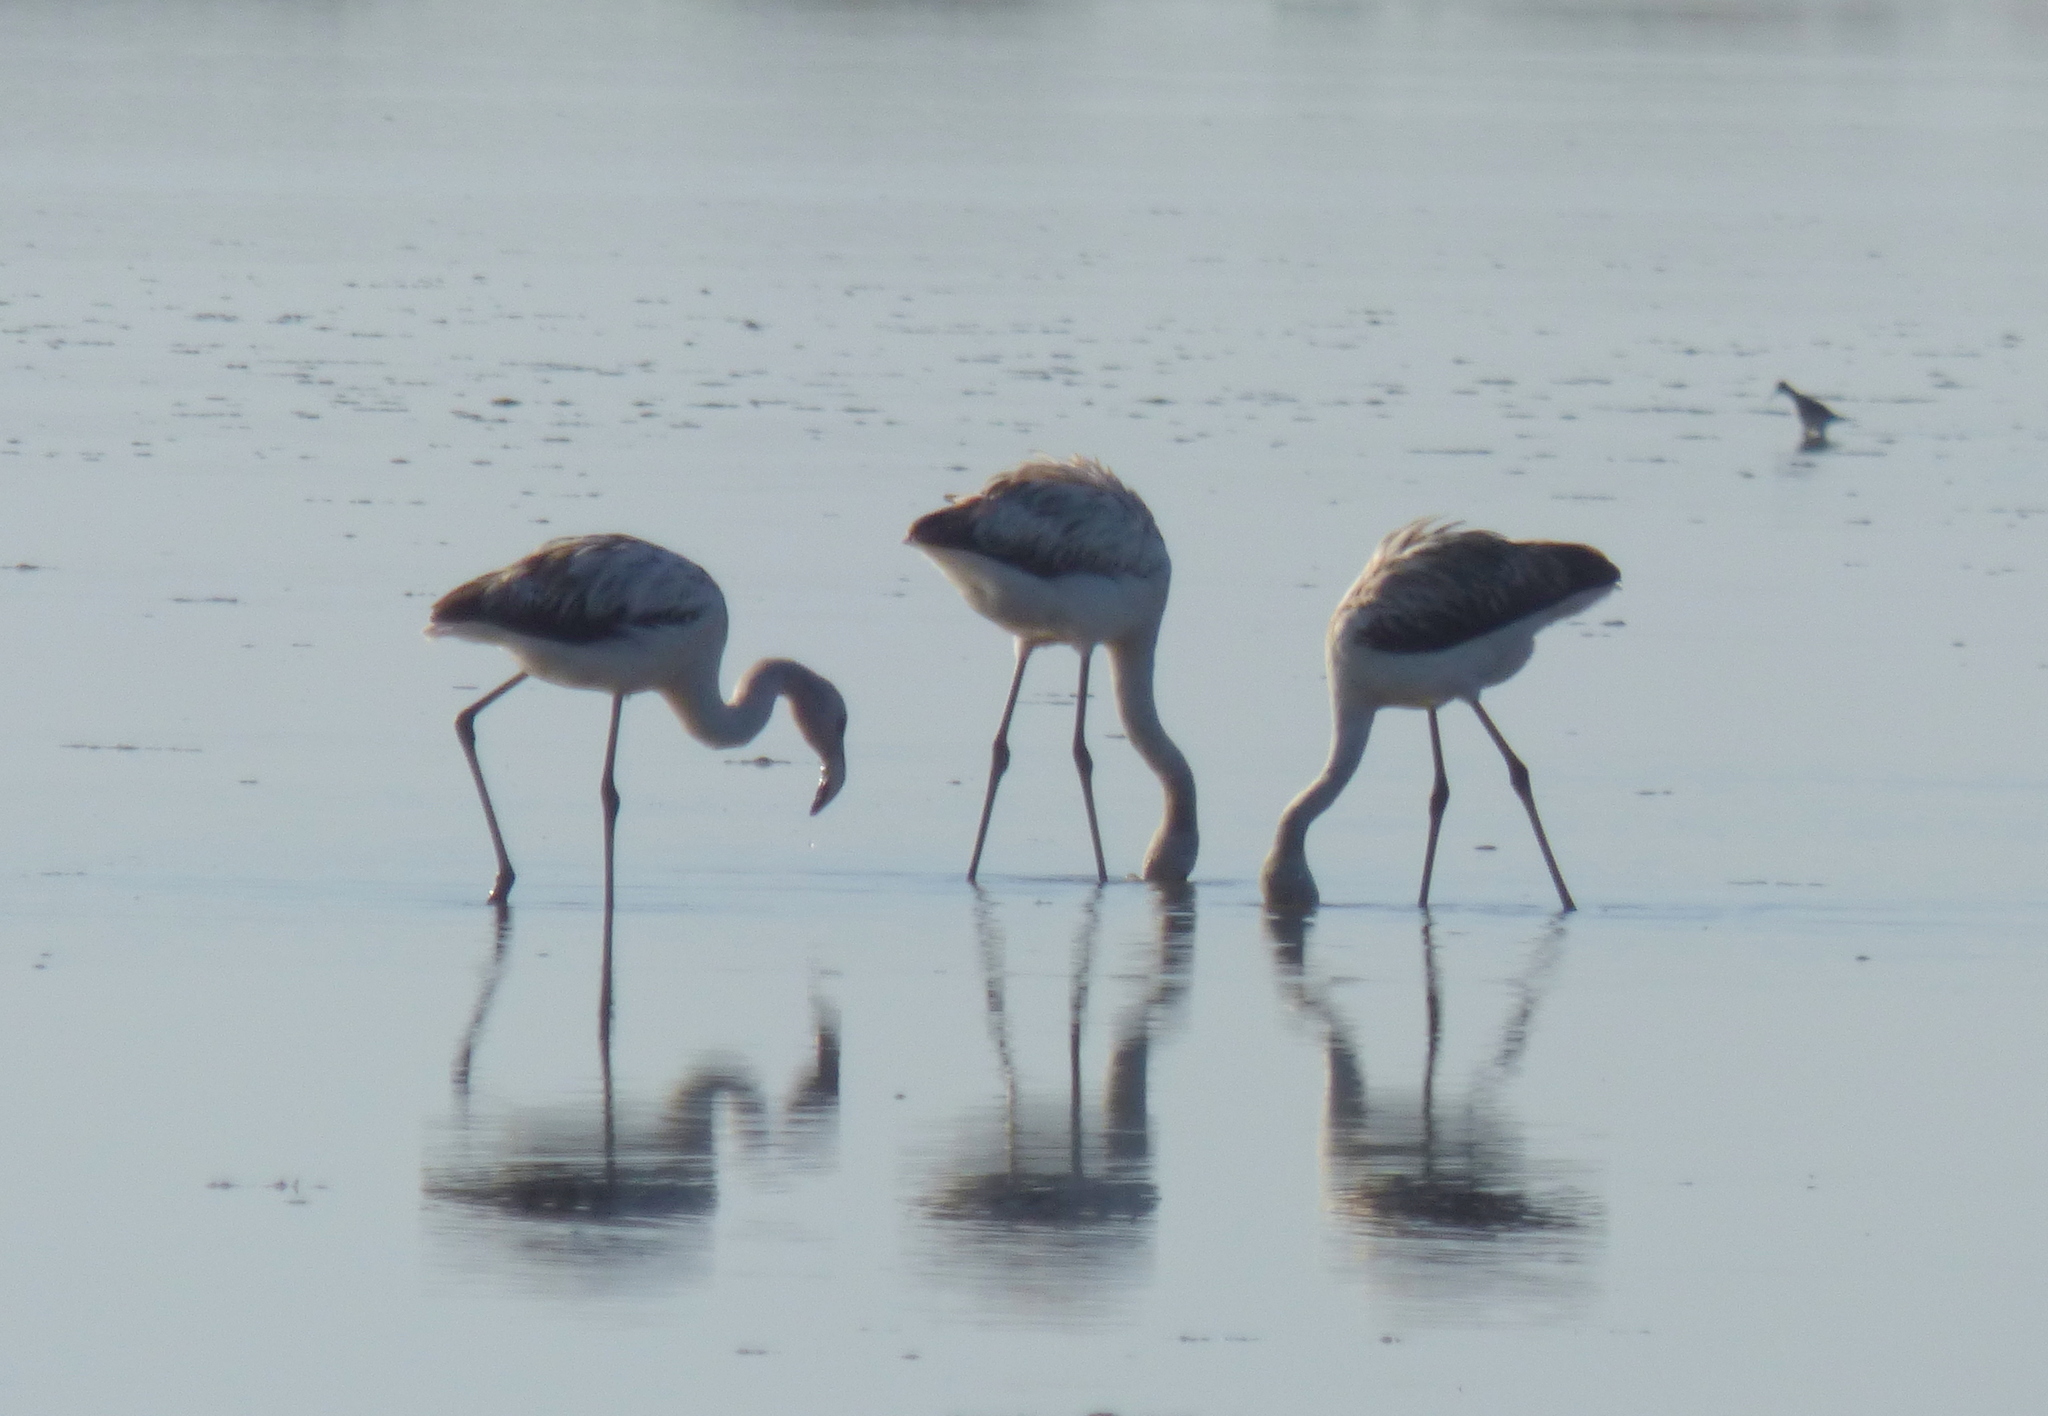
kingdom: Animalia
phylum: Chordata
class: Aves
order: Phoenicopteriformes
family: Phoenicopteridae
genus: Phoenicopterus
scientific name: Phoenicopterus chilensis
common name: Chilean flamingo
